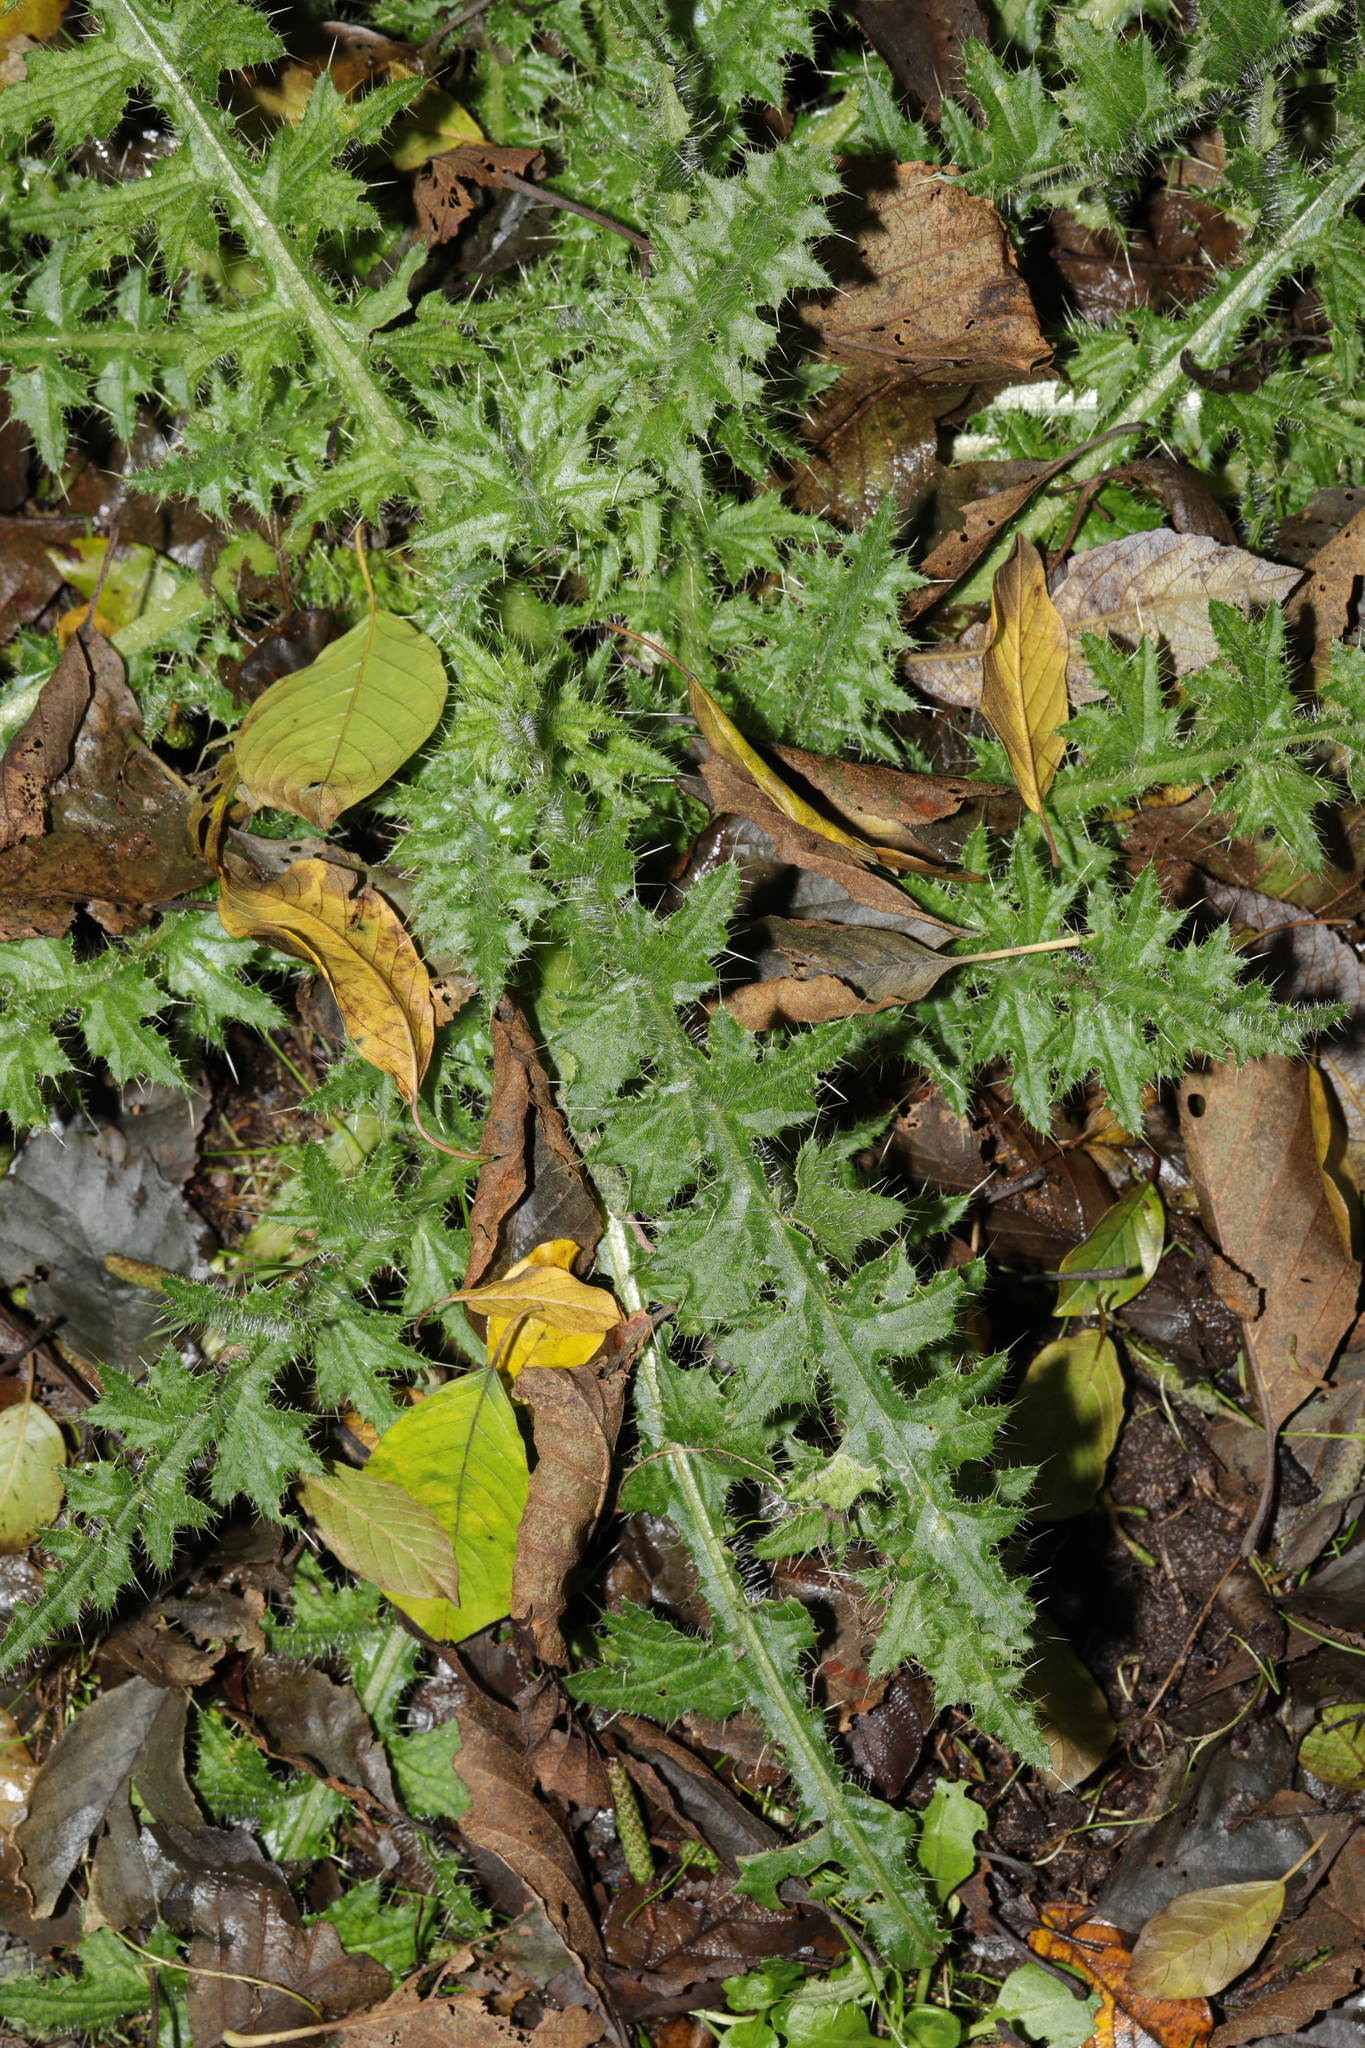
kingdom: Plantae
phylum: Tracheophyta
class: Magnoliopsida
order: Asterales
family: Asteraceae
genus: Cirsium
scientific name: Cirsium palustre
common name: Marsh thistle
